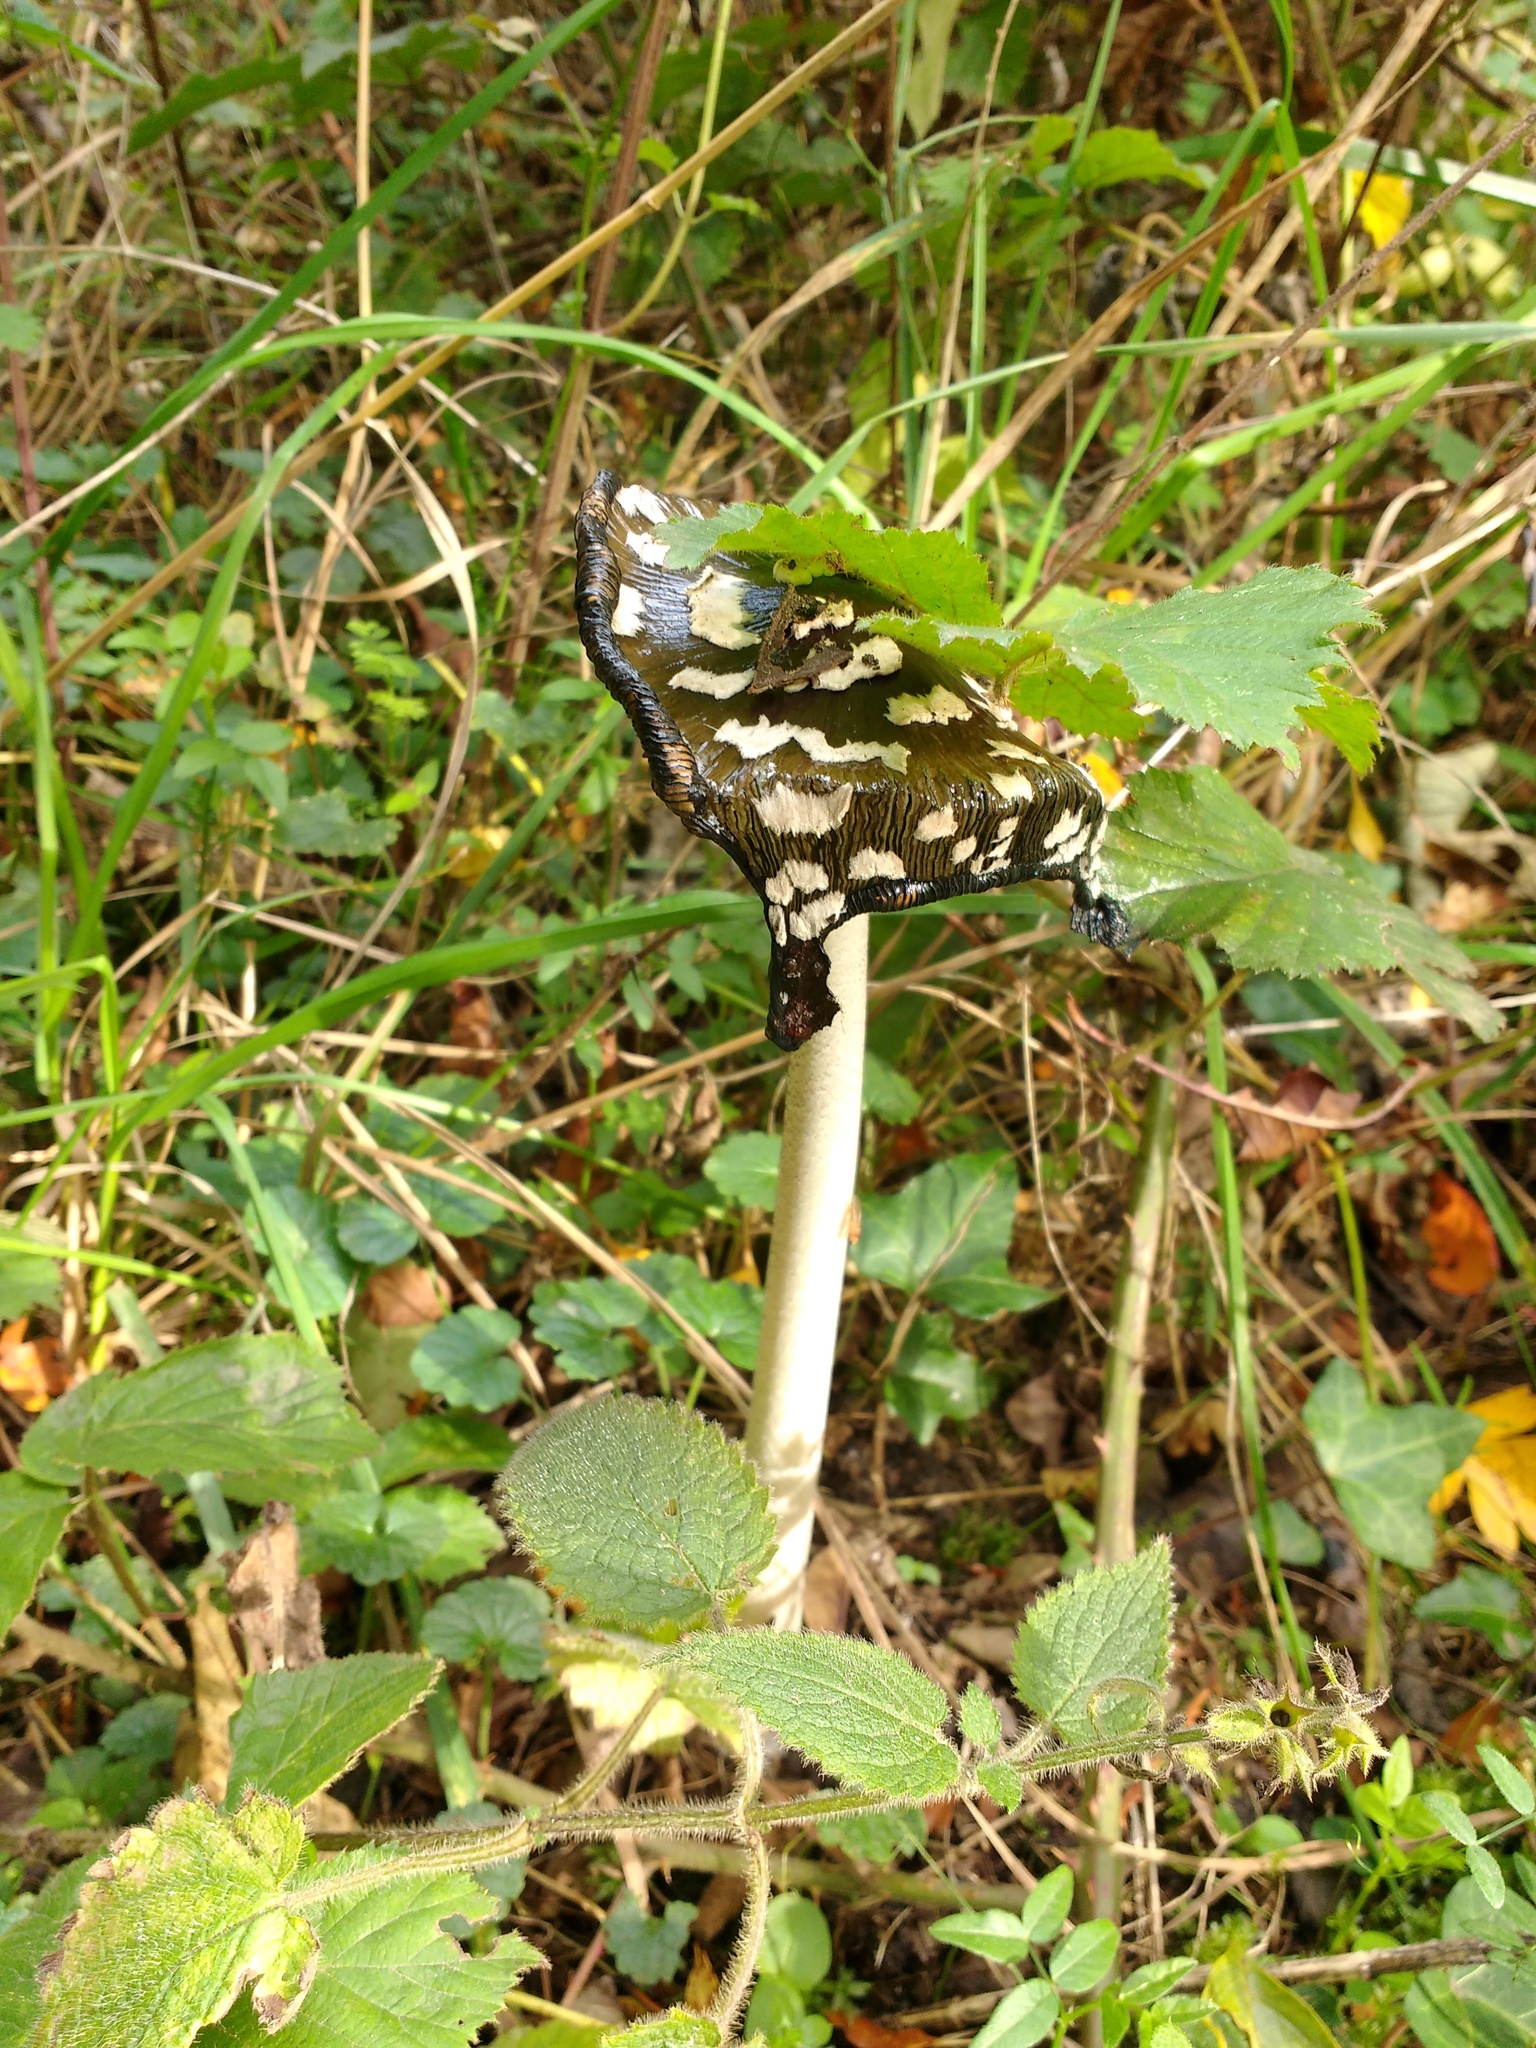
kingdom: Fungi
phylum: Basidiomycota
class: Agaricomycetes
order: Agaricales
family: Psathyrellaceae
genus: Coprinopsis
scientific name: Coprinopsis picacea
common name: Magpie inkcap
